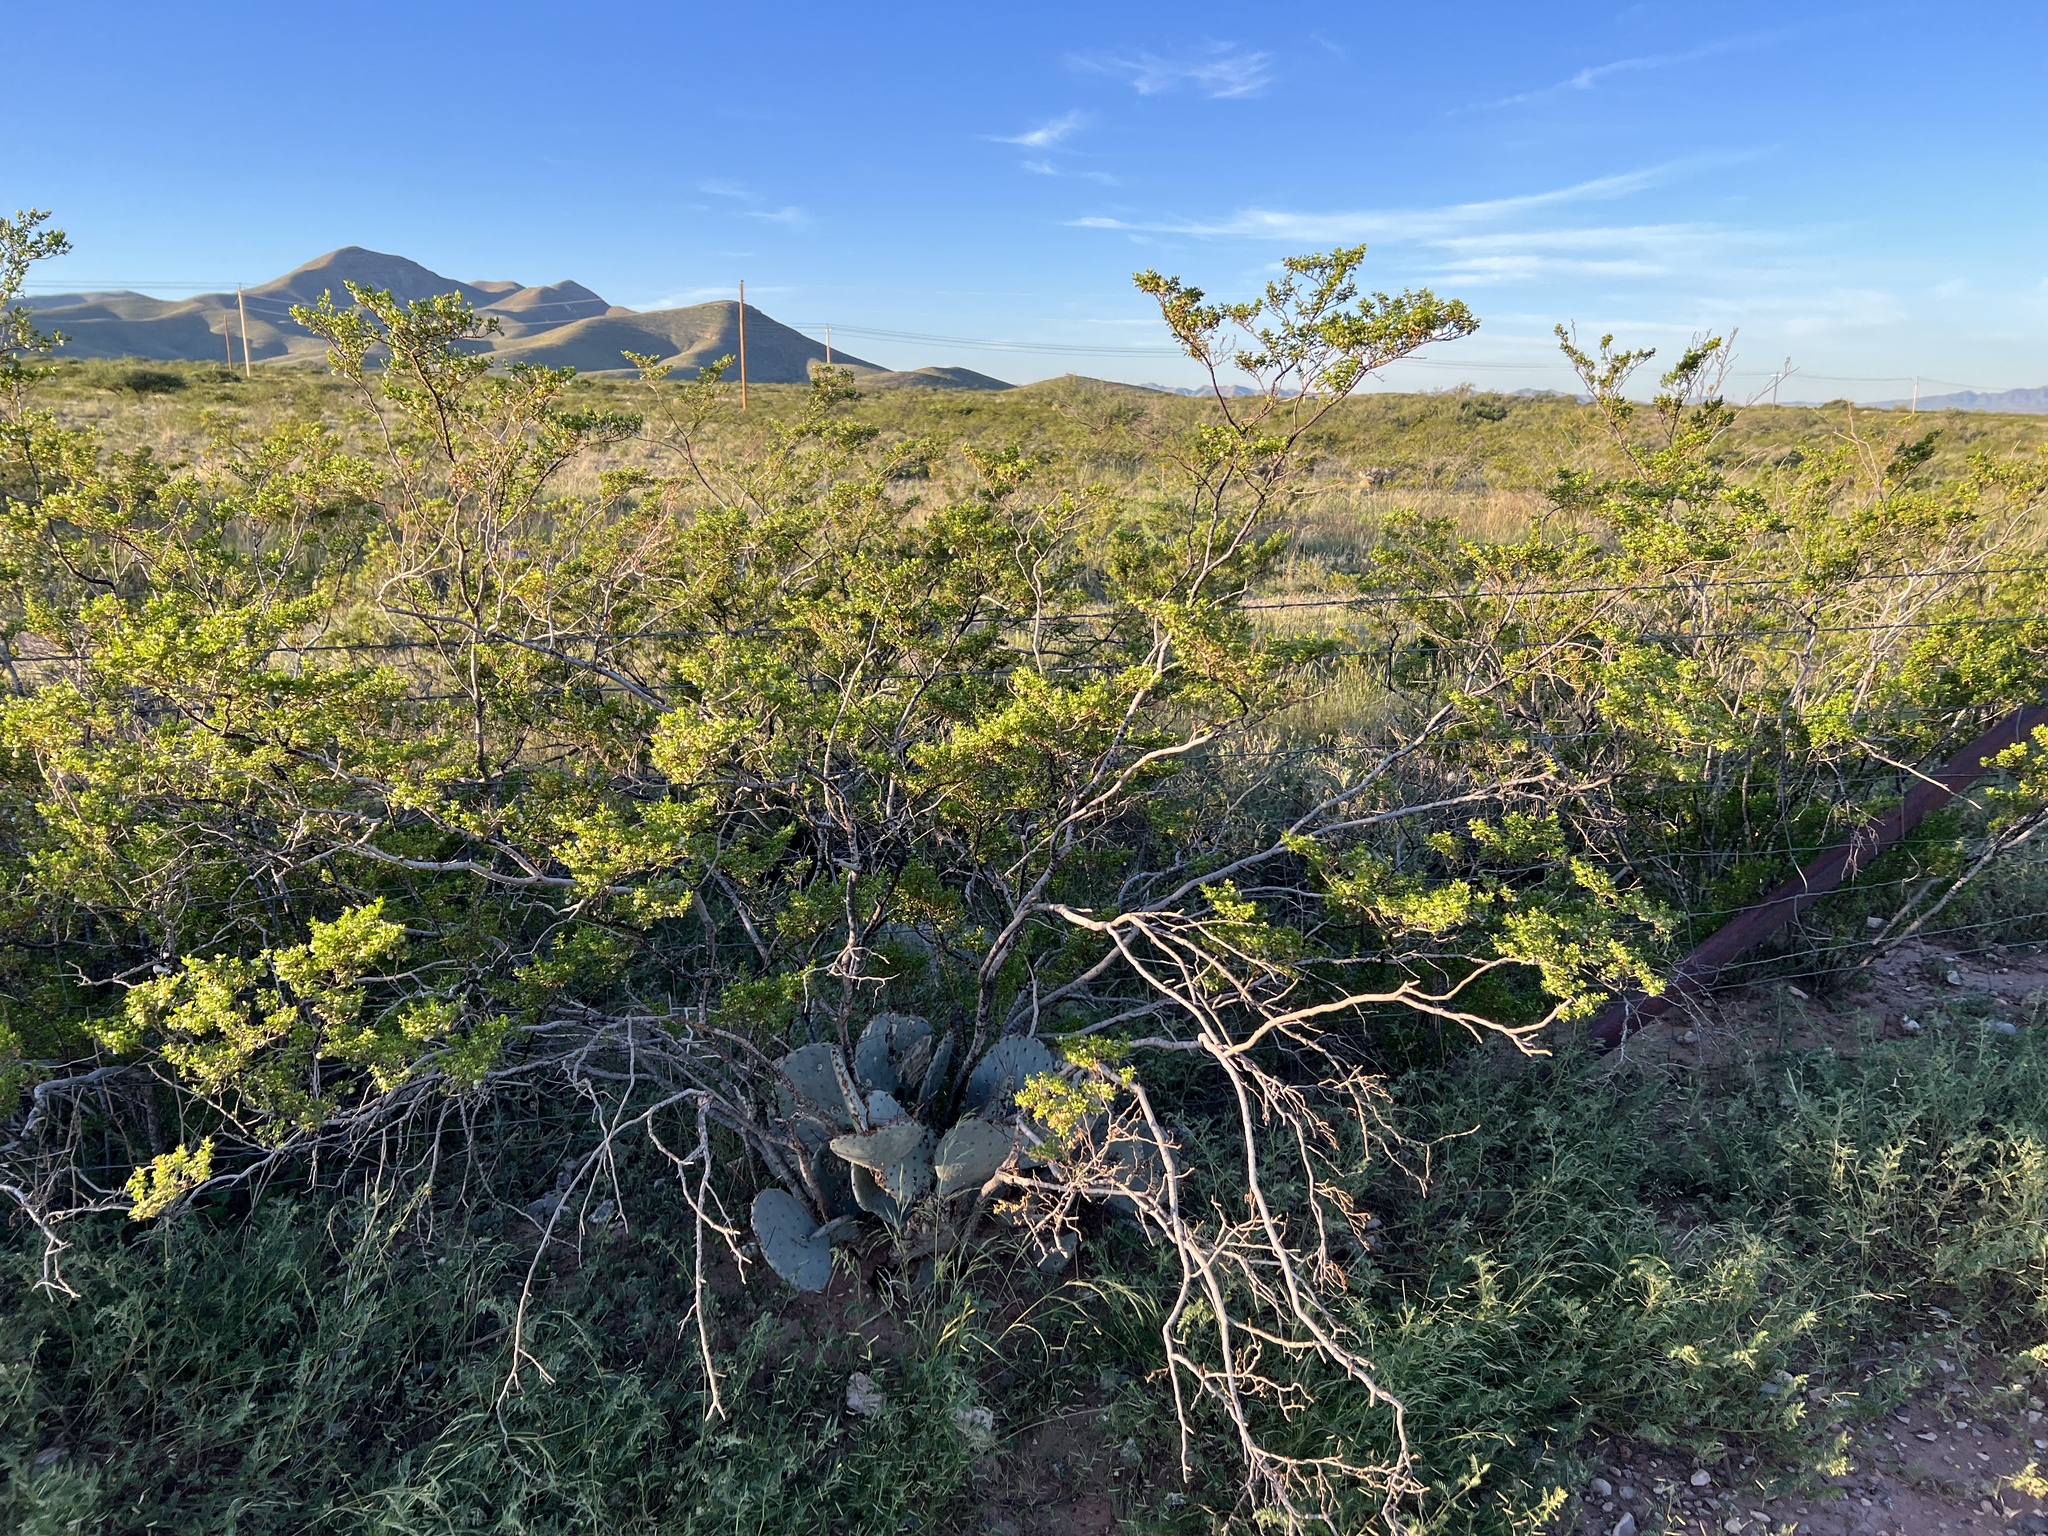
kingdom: Plantae
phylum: Tracheophyta
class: Magnoliopsida
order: Zygophyllales
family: Zygophyllaceae
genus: Larrea
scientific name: Larrea tridentata
